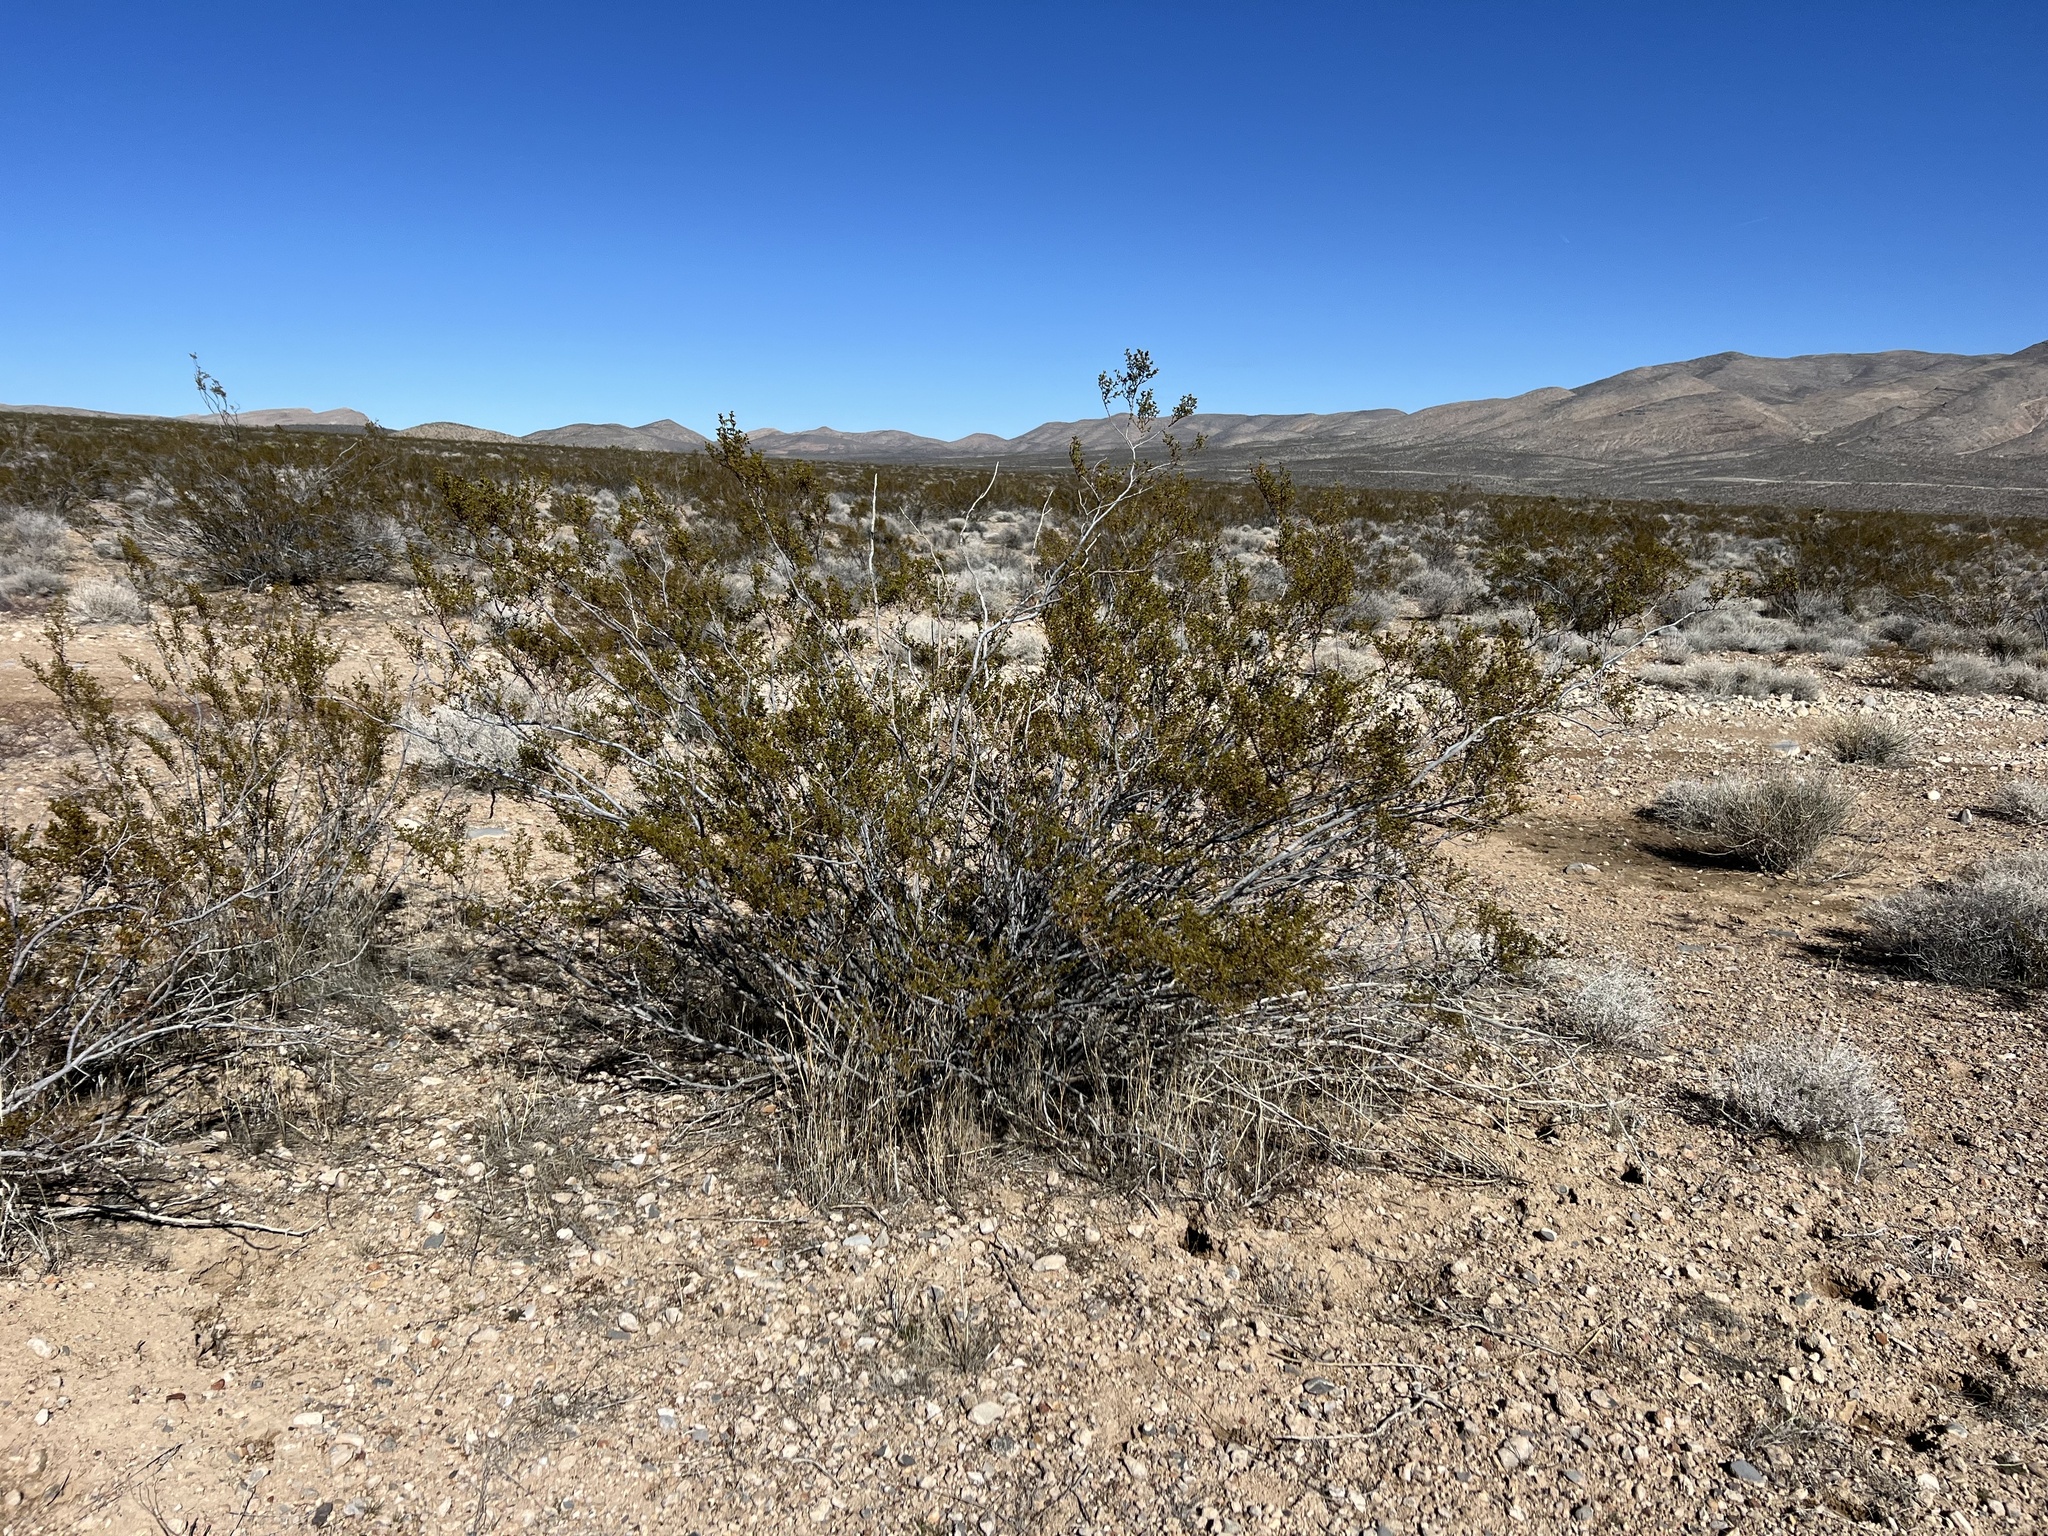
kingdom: Plantae
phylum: Tracheophyta
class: Magnoliopsida
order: Zygophyllales
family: Zygophyllaceae
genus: Larrea
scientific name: Larrea tridentata
